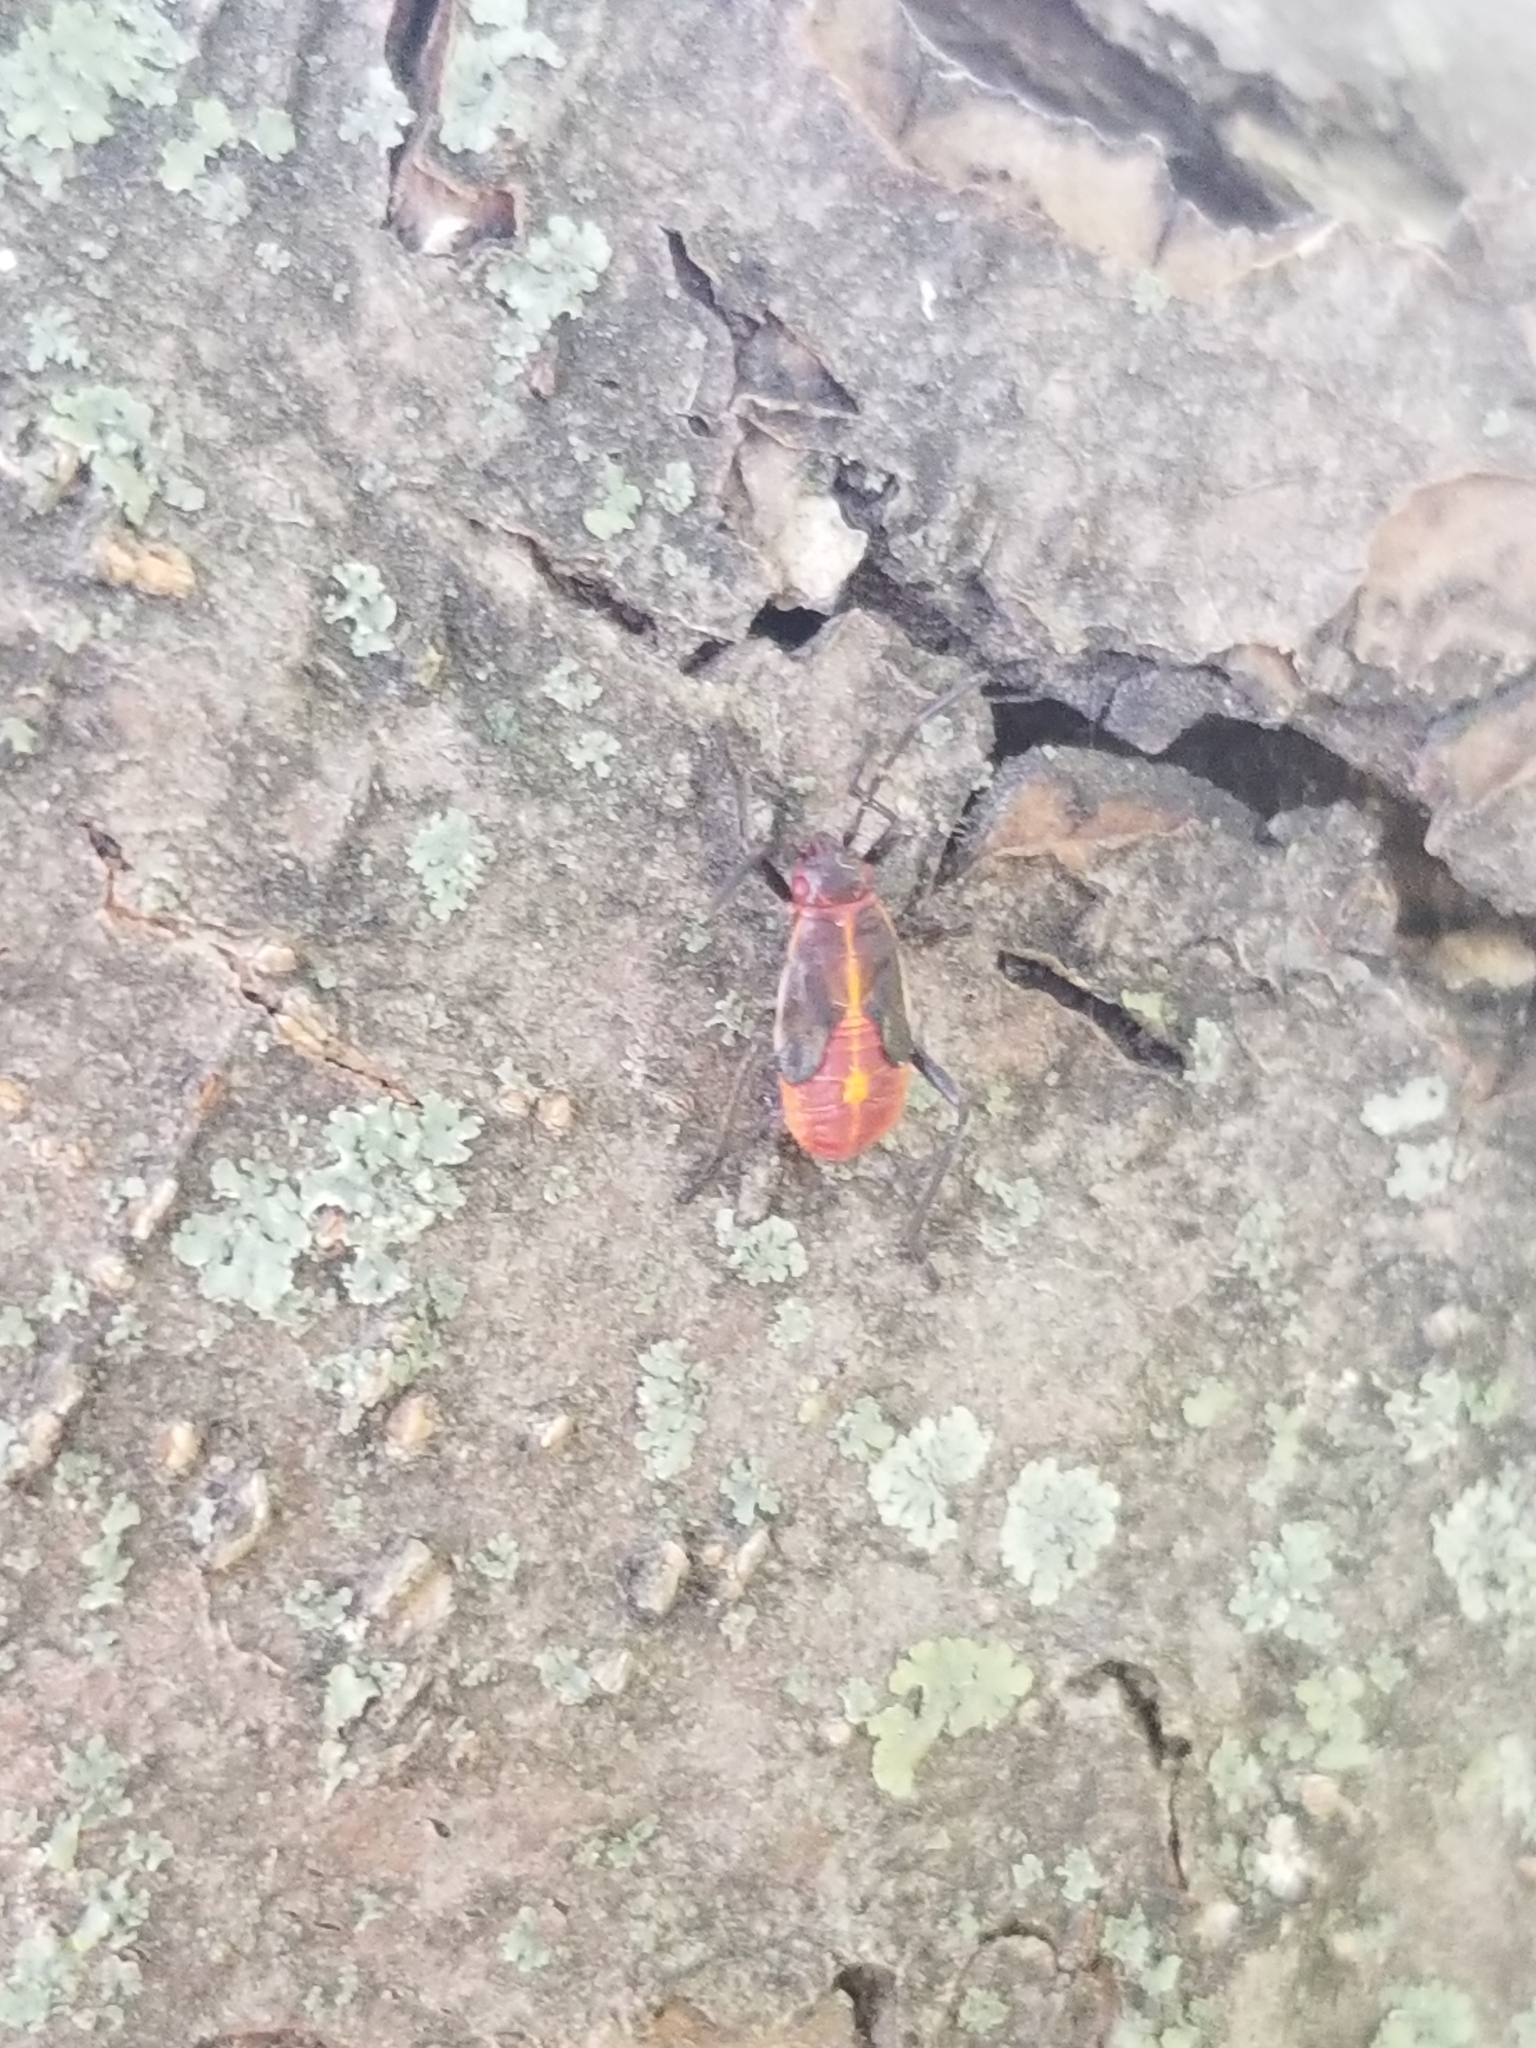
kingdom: Animalia
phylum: Arthropoda
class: Insecta
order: Hemiptera
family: Rhopalidae
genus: Boisea
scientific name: Boisea trivittata
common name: Boxelder bug
